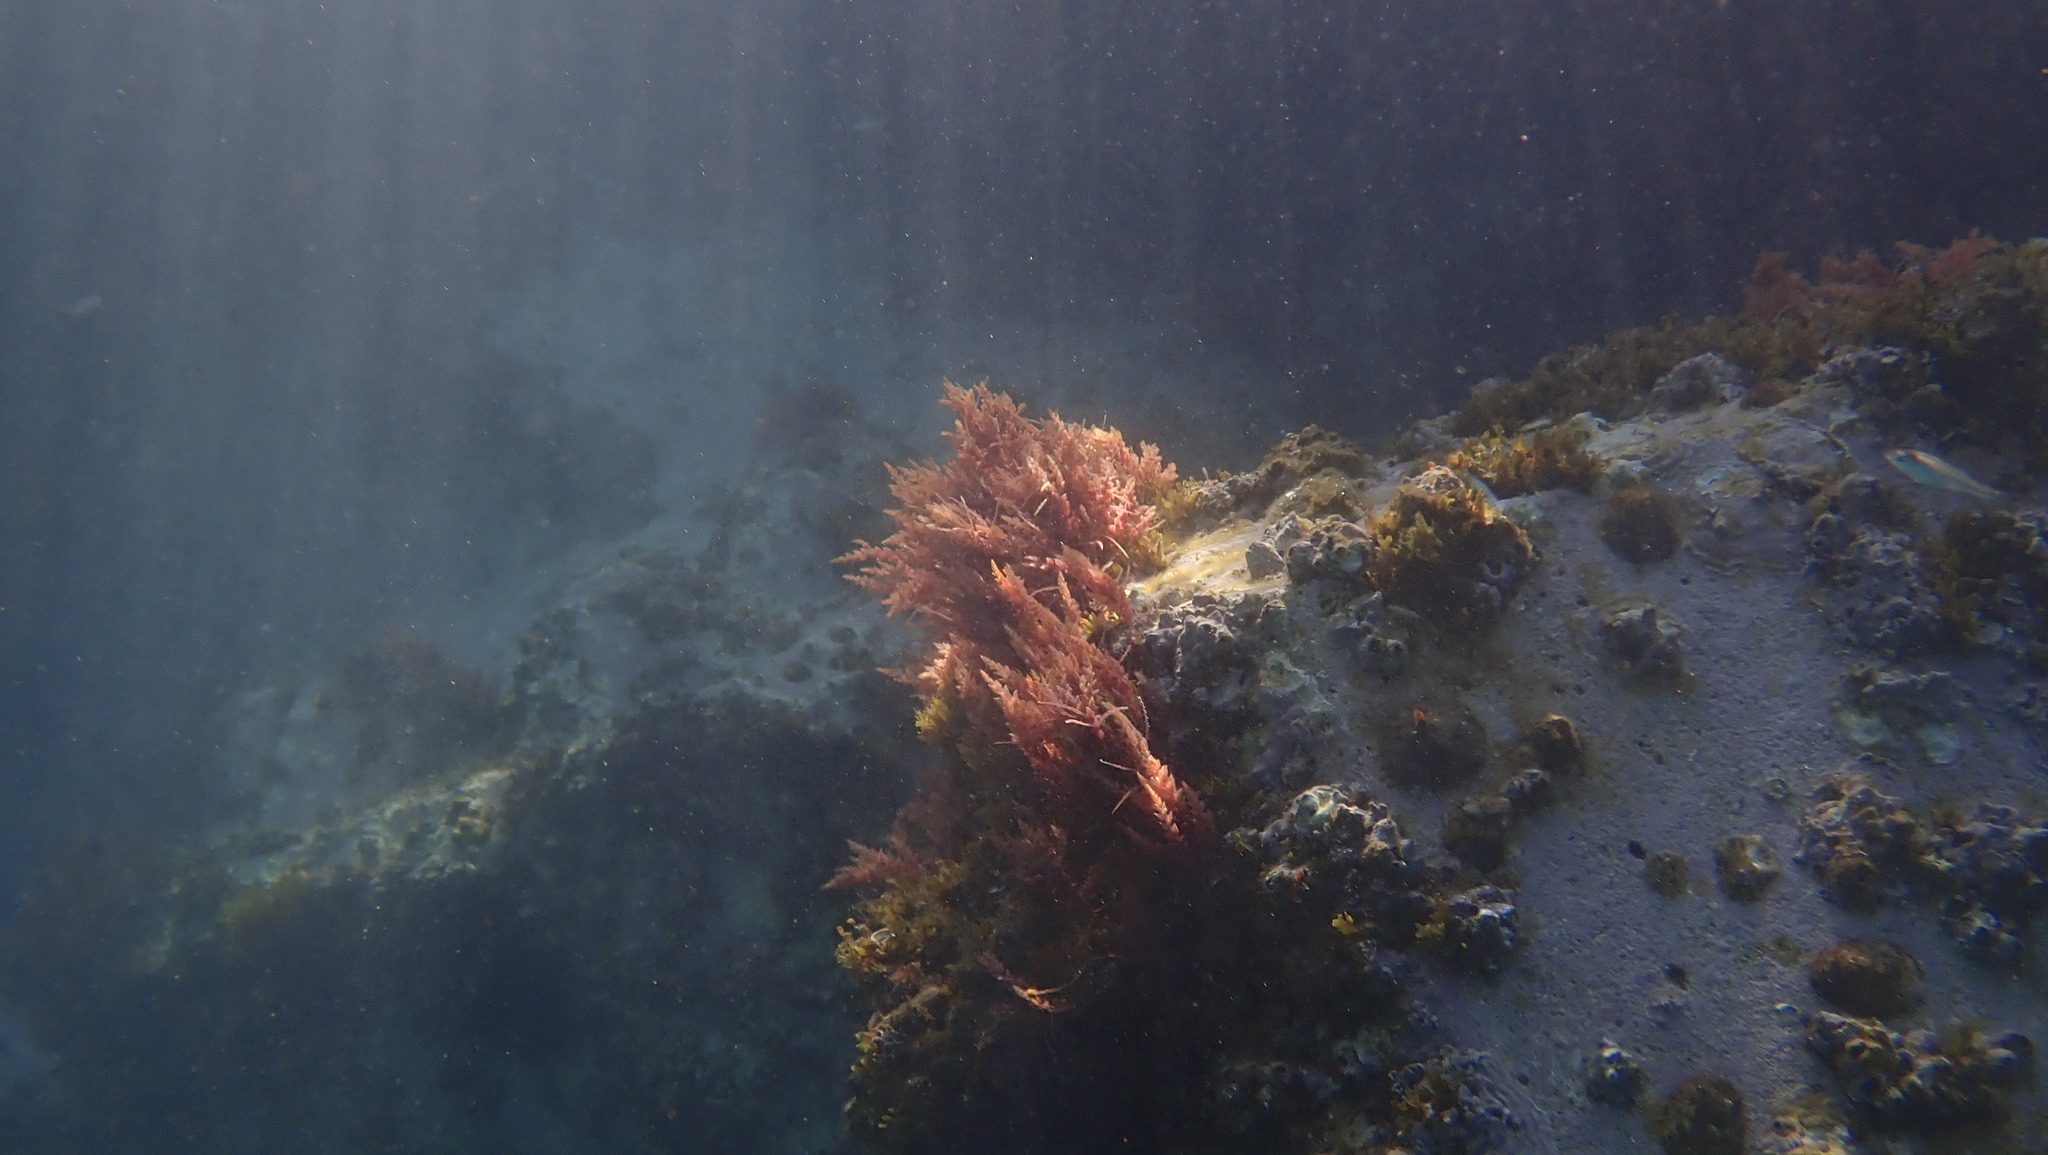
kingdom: Plantae
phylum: Rhodophyta
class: Florideophyceae
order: Bonnemaisoniales
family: Bonnemaisoniaceae
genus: Asparagopsis
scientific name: Asparagopsis armata
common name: Harpoon weed
